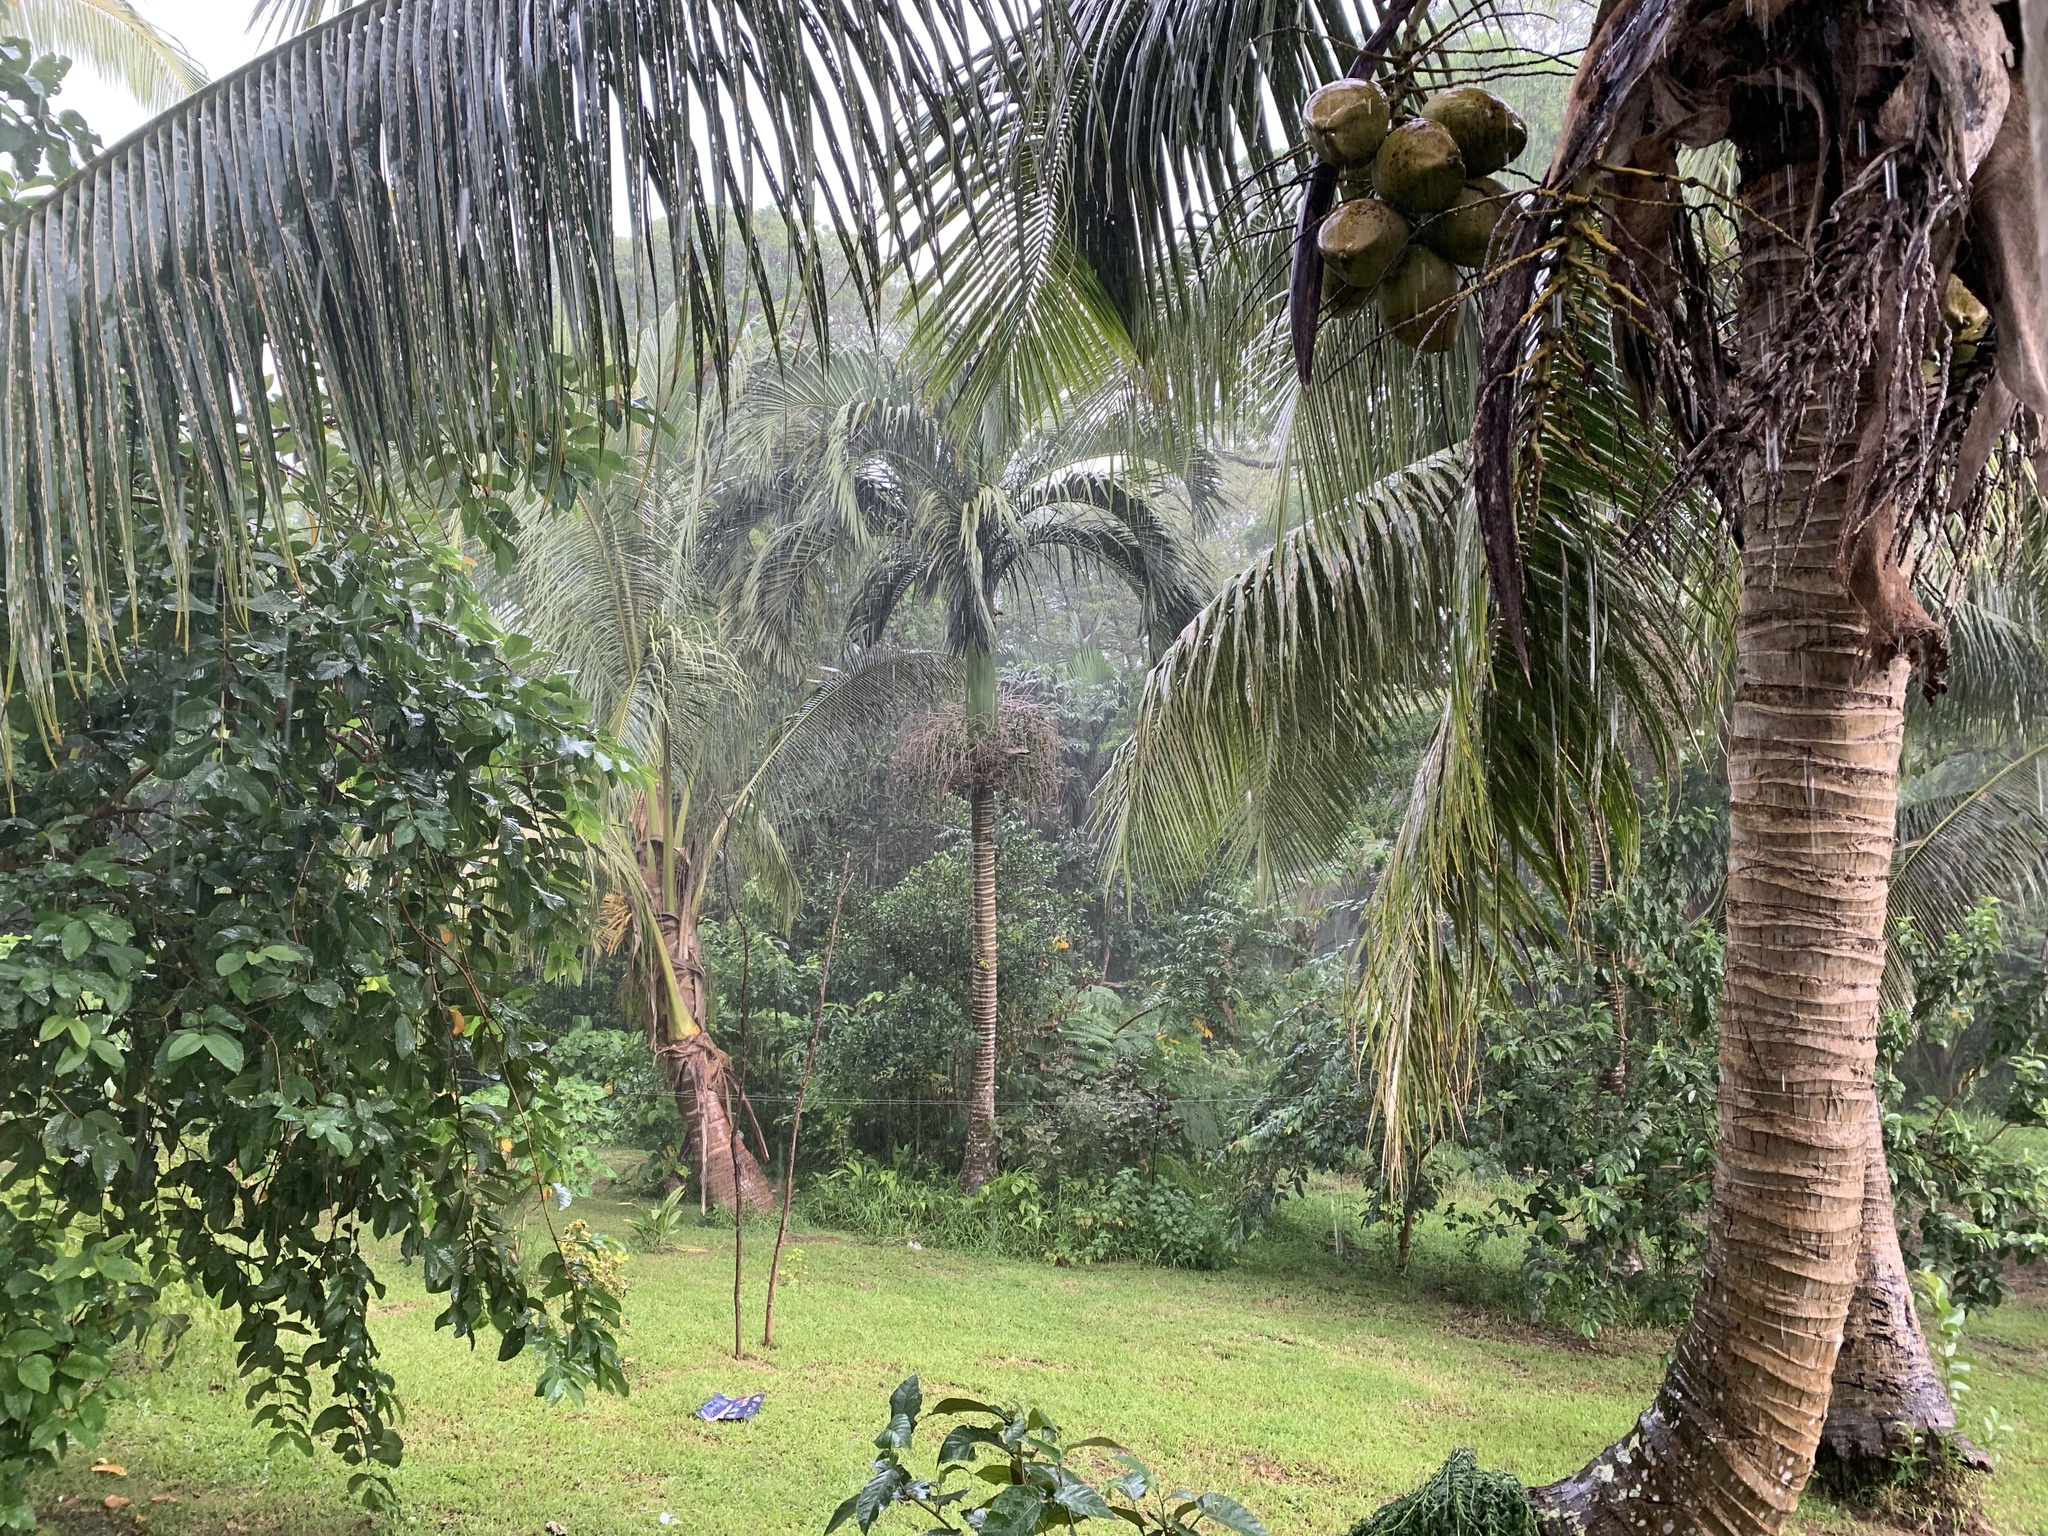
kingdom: Plantae
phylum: Tracheophyta
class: Liliopsida
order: Arecales
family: Arecaceae
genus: Carpoxylon
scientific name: Carpoxylon macrospermum
